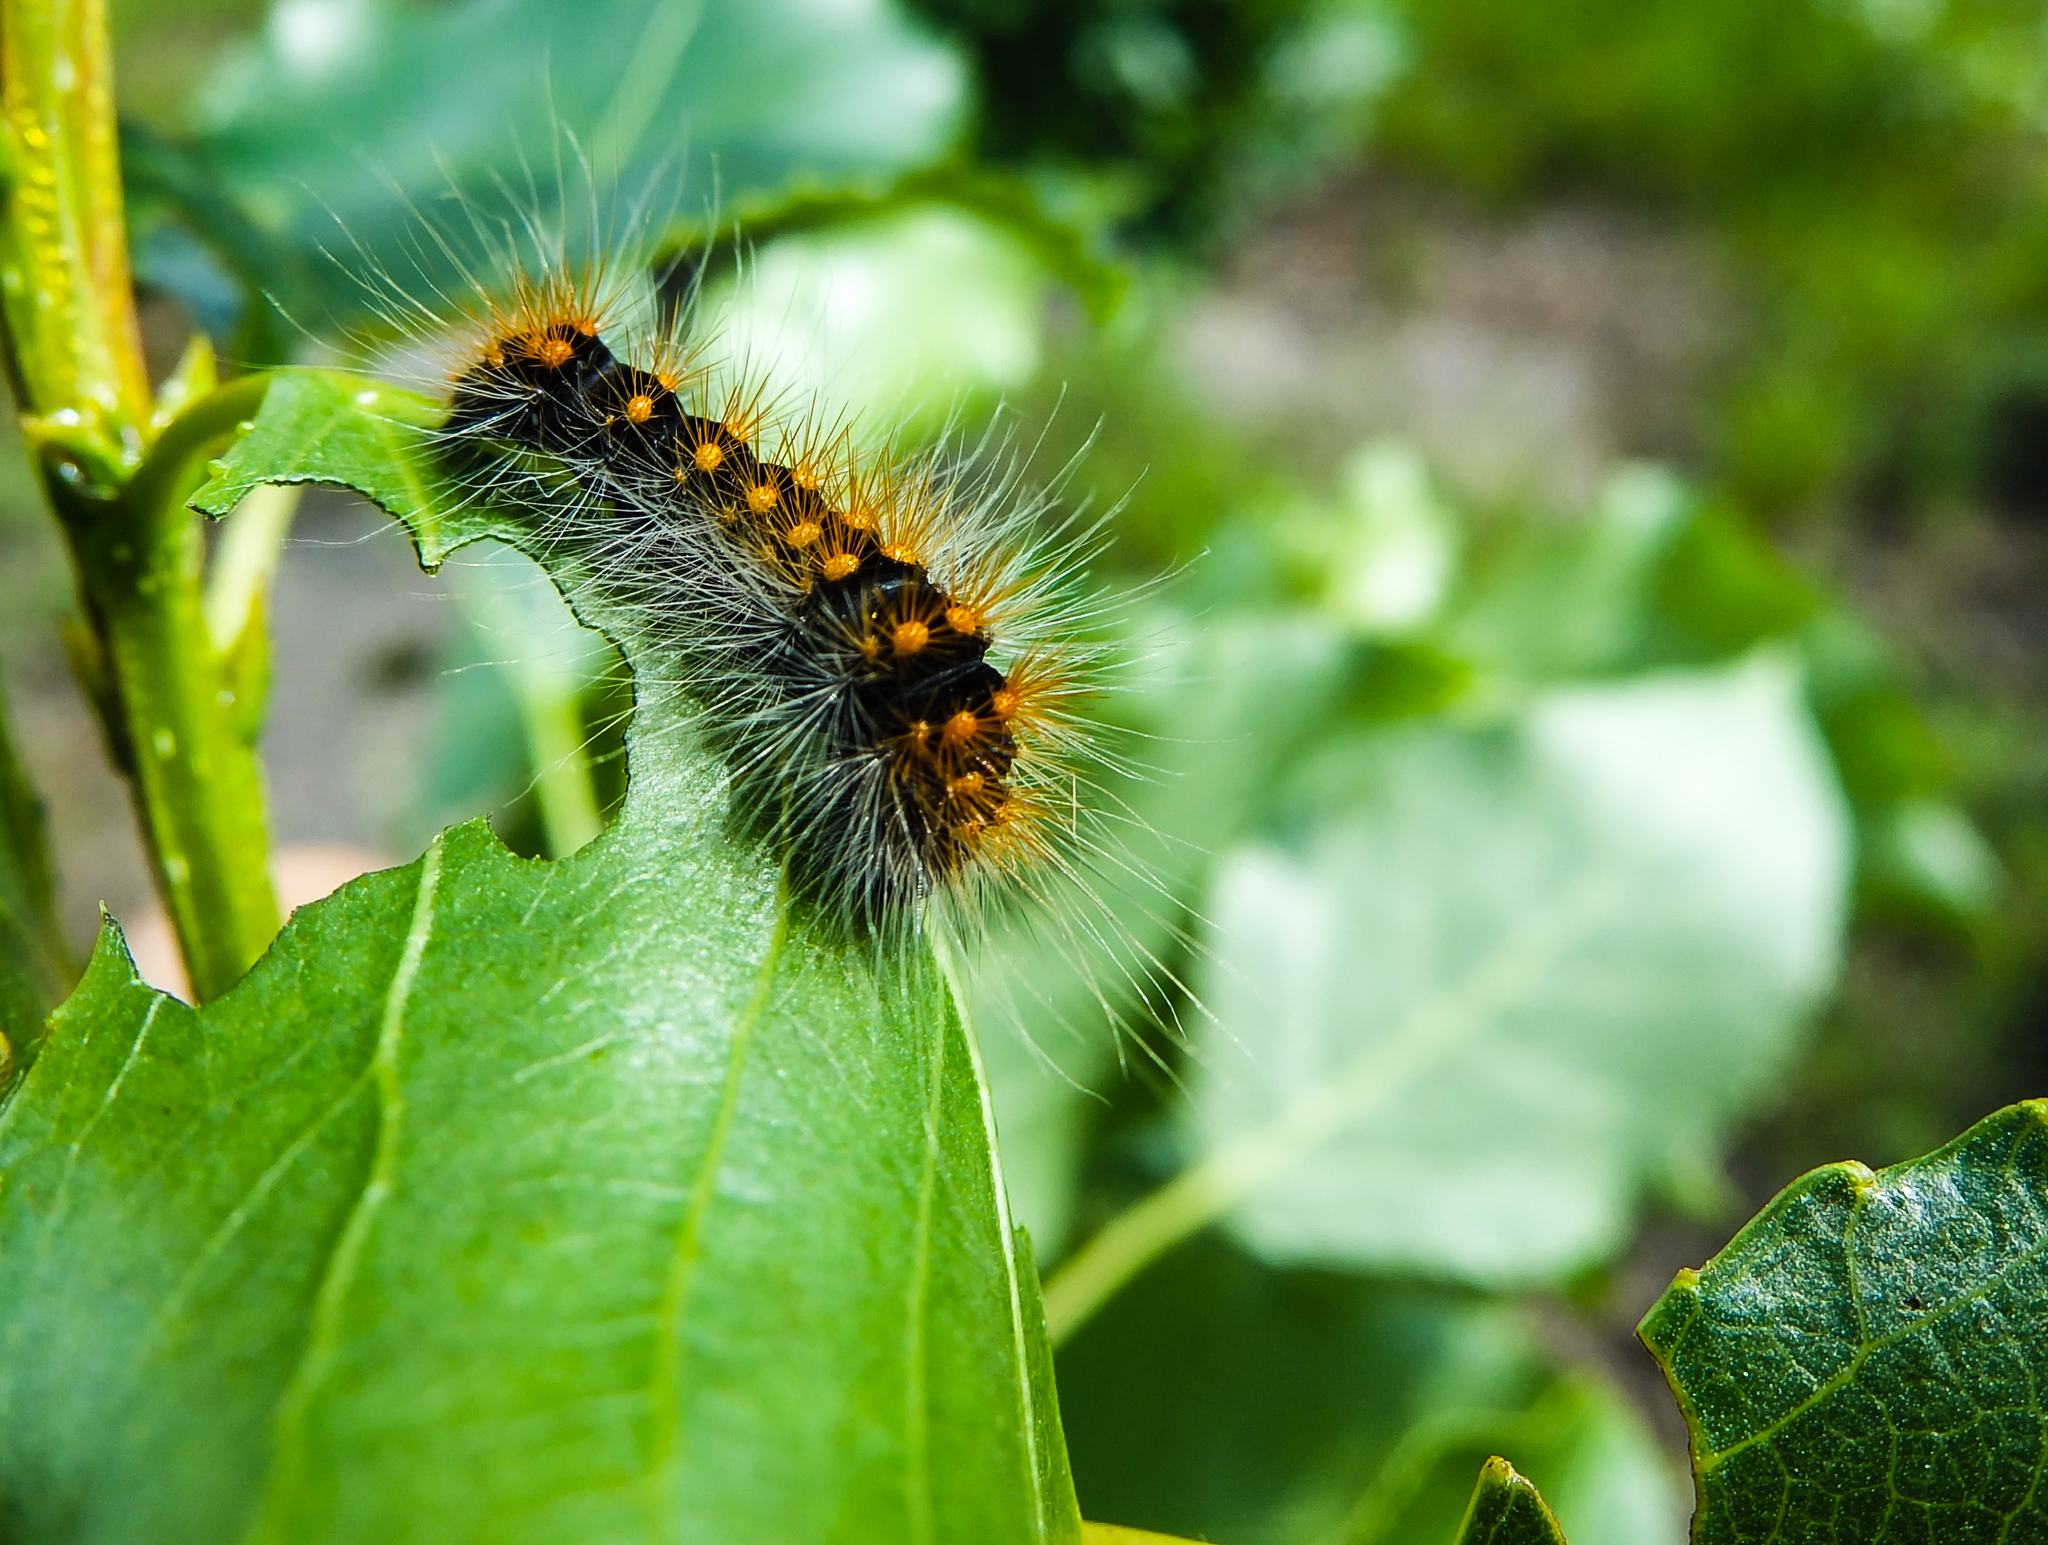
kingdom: Animalia
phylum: Arthropoda
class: Insecta
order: Lepidoptera
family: Noctuidae
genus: Acronicta
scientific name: Acronicta auricoma
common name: Scarce dagger
